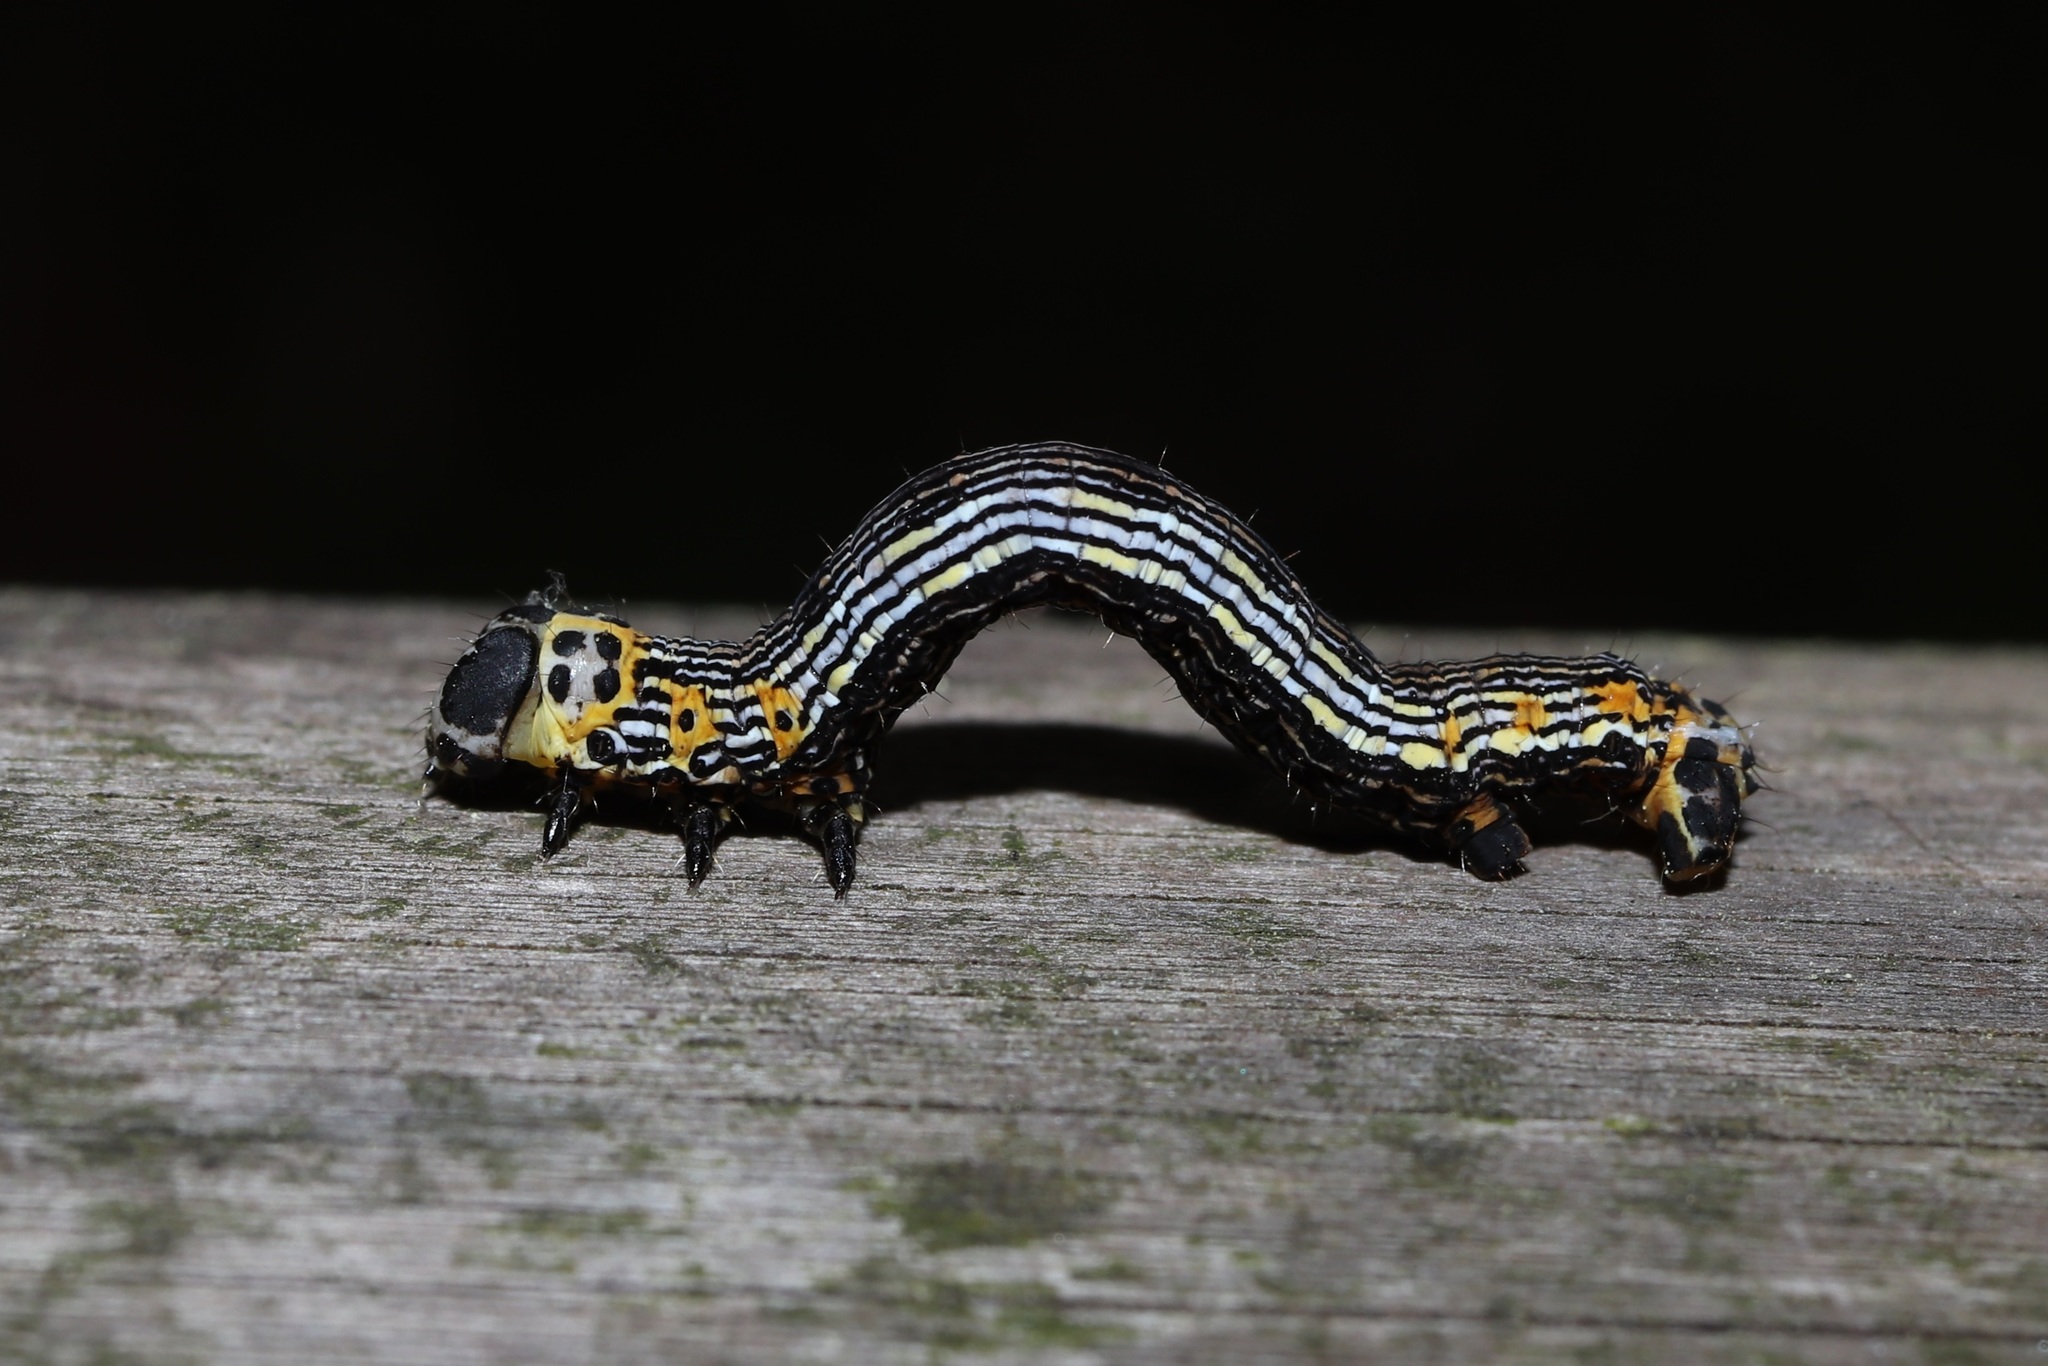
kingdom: Animalia
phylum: Arthropoda
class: Insecta
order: Lepidoptera
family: Geometridae
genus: Acrodontis
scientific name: Acrodontis kotshubeji
